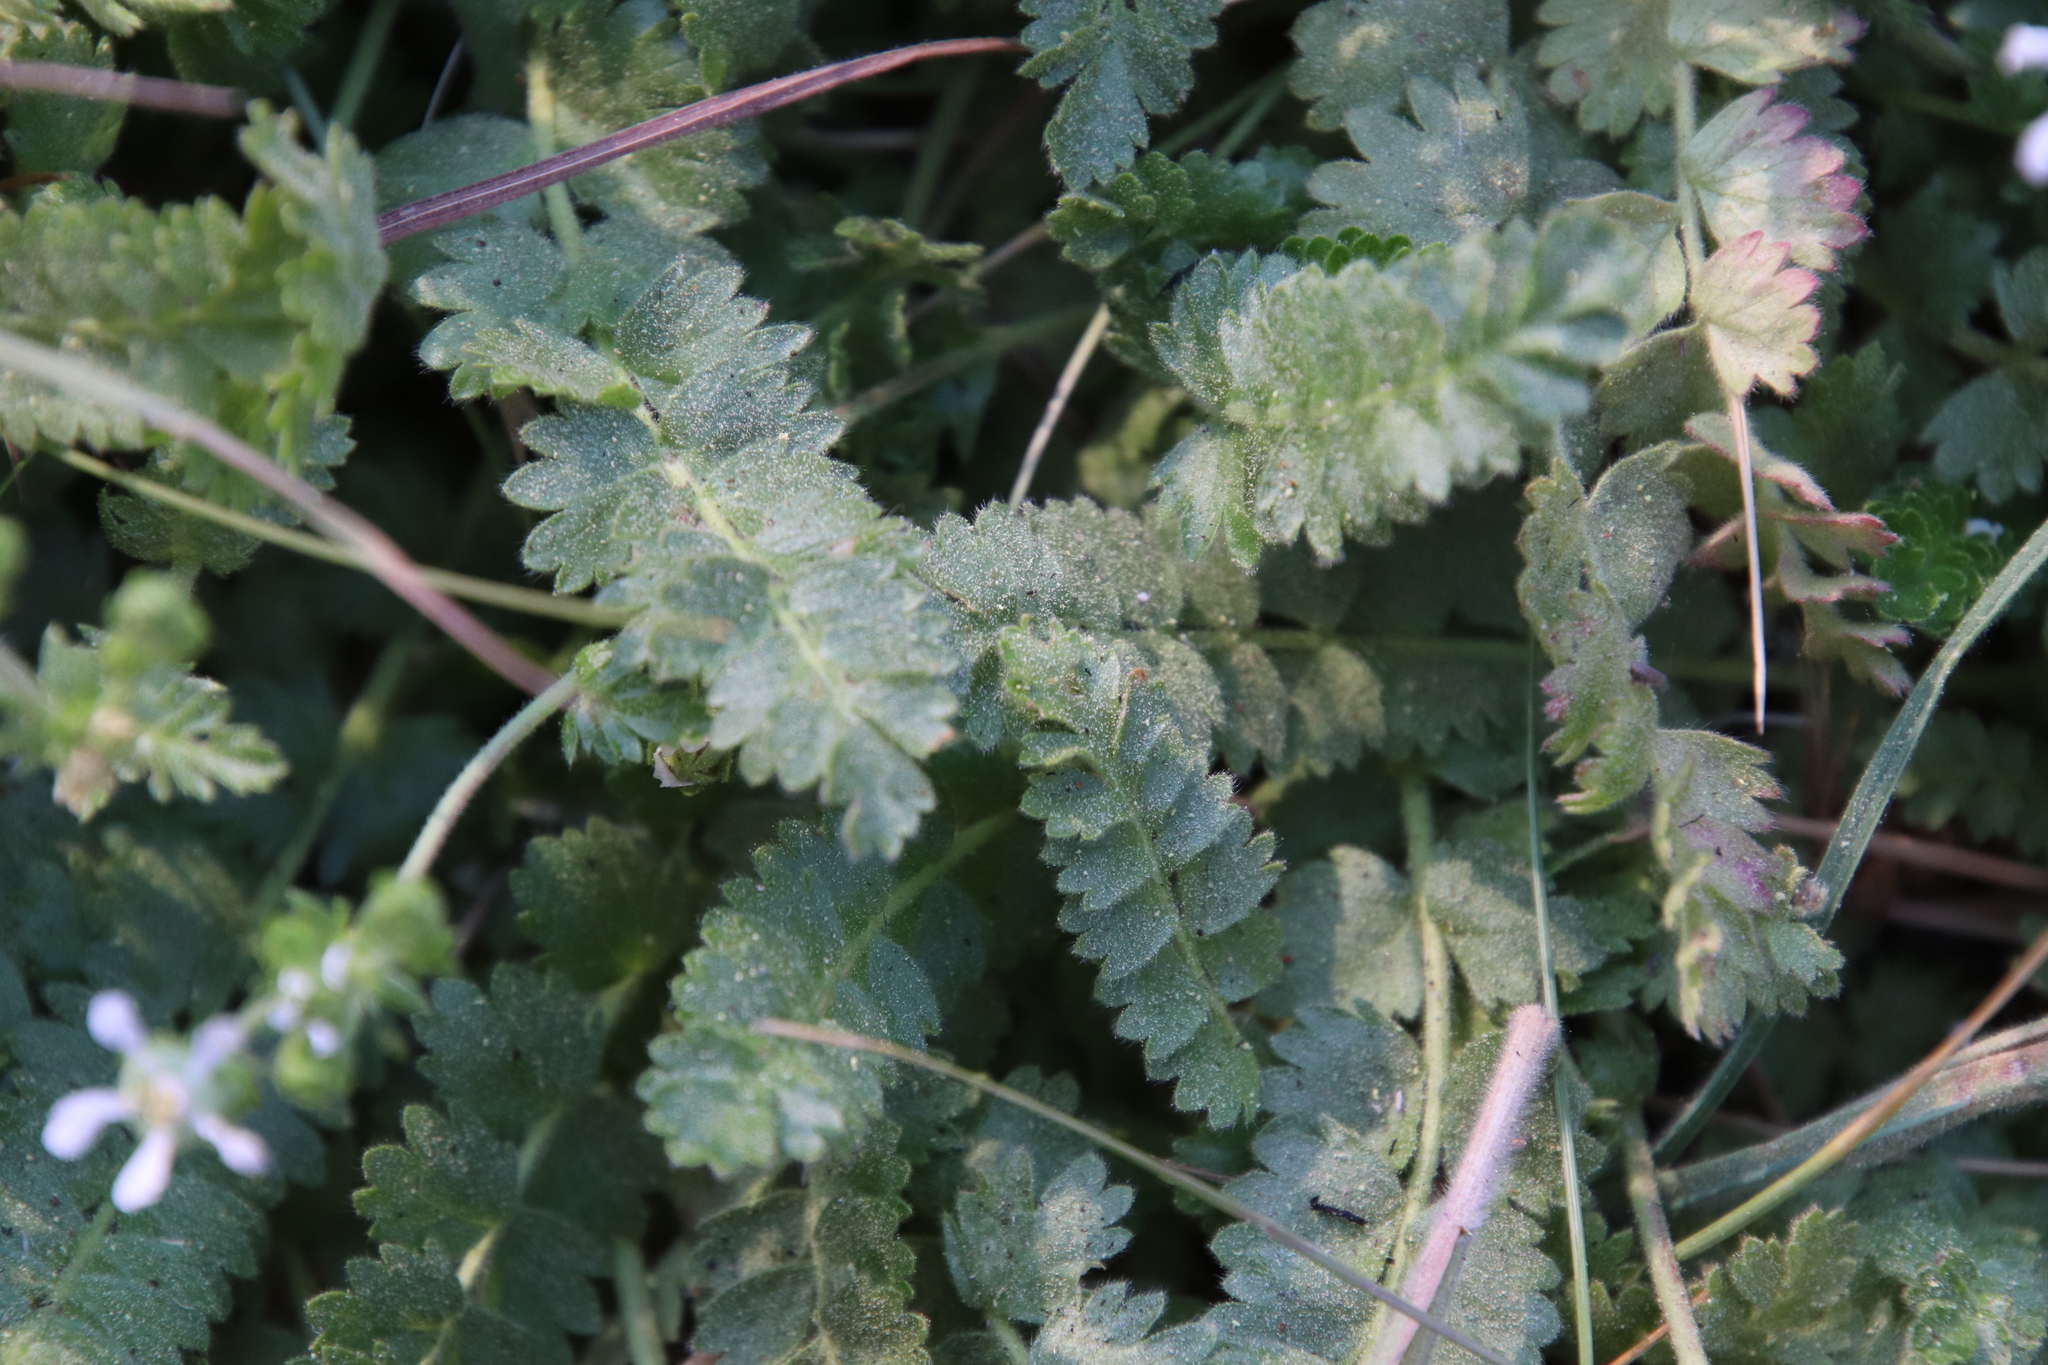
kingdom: Plantae
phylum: Tracheophyta
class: Magnoliopsida
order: Rosales
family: Rosaceae
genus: Potentilla
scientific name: Potentilla clevelandii
